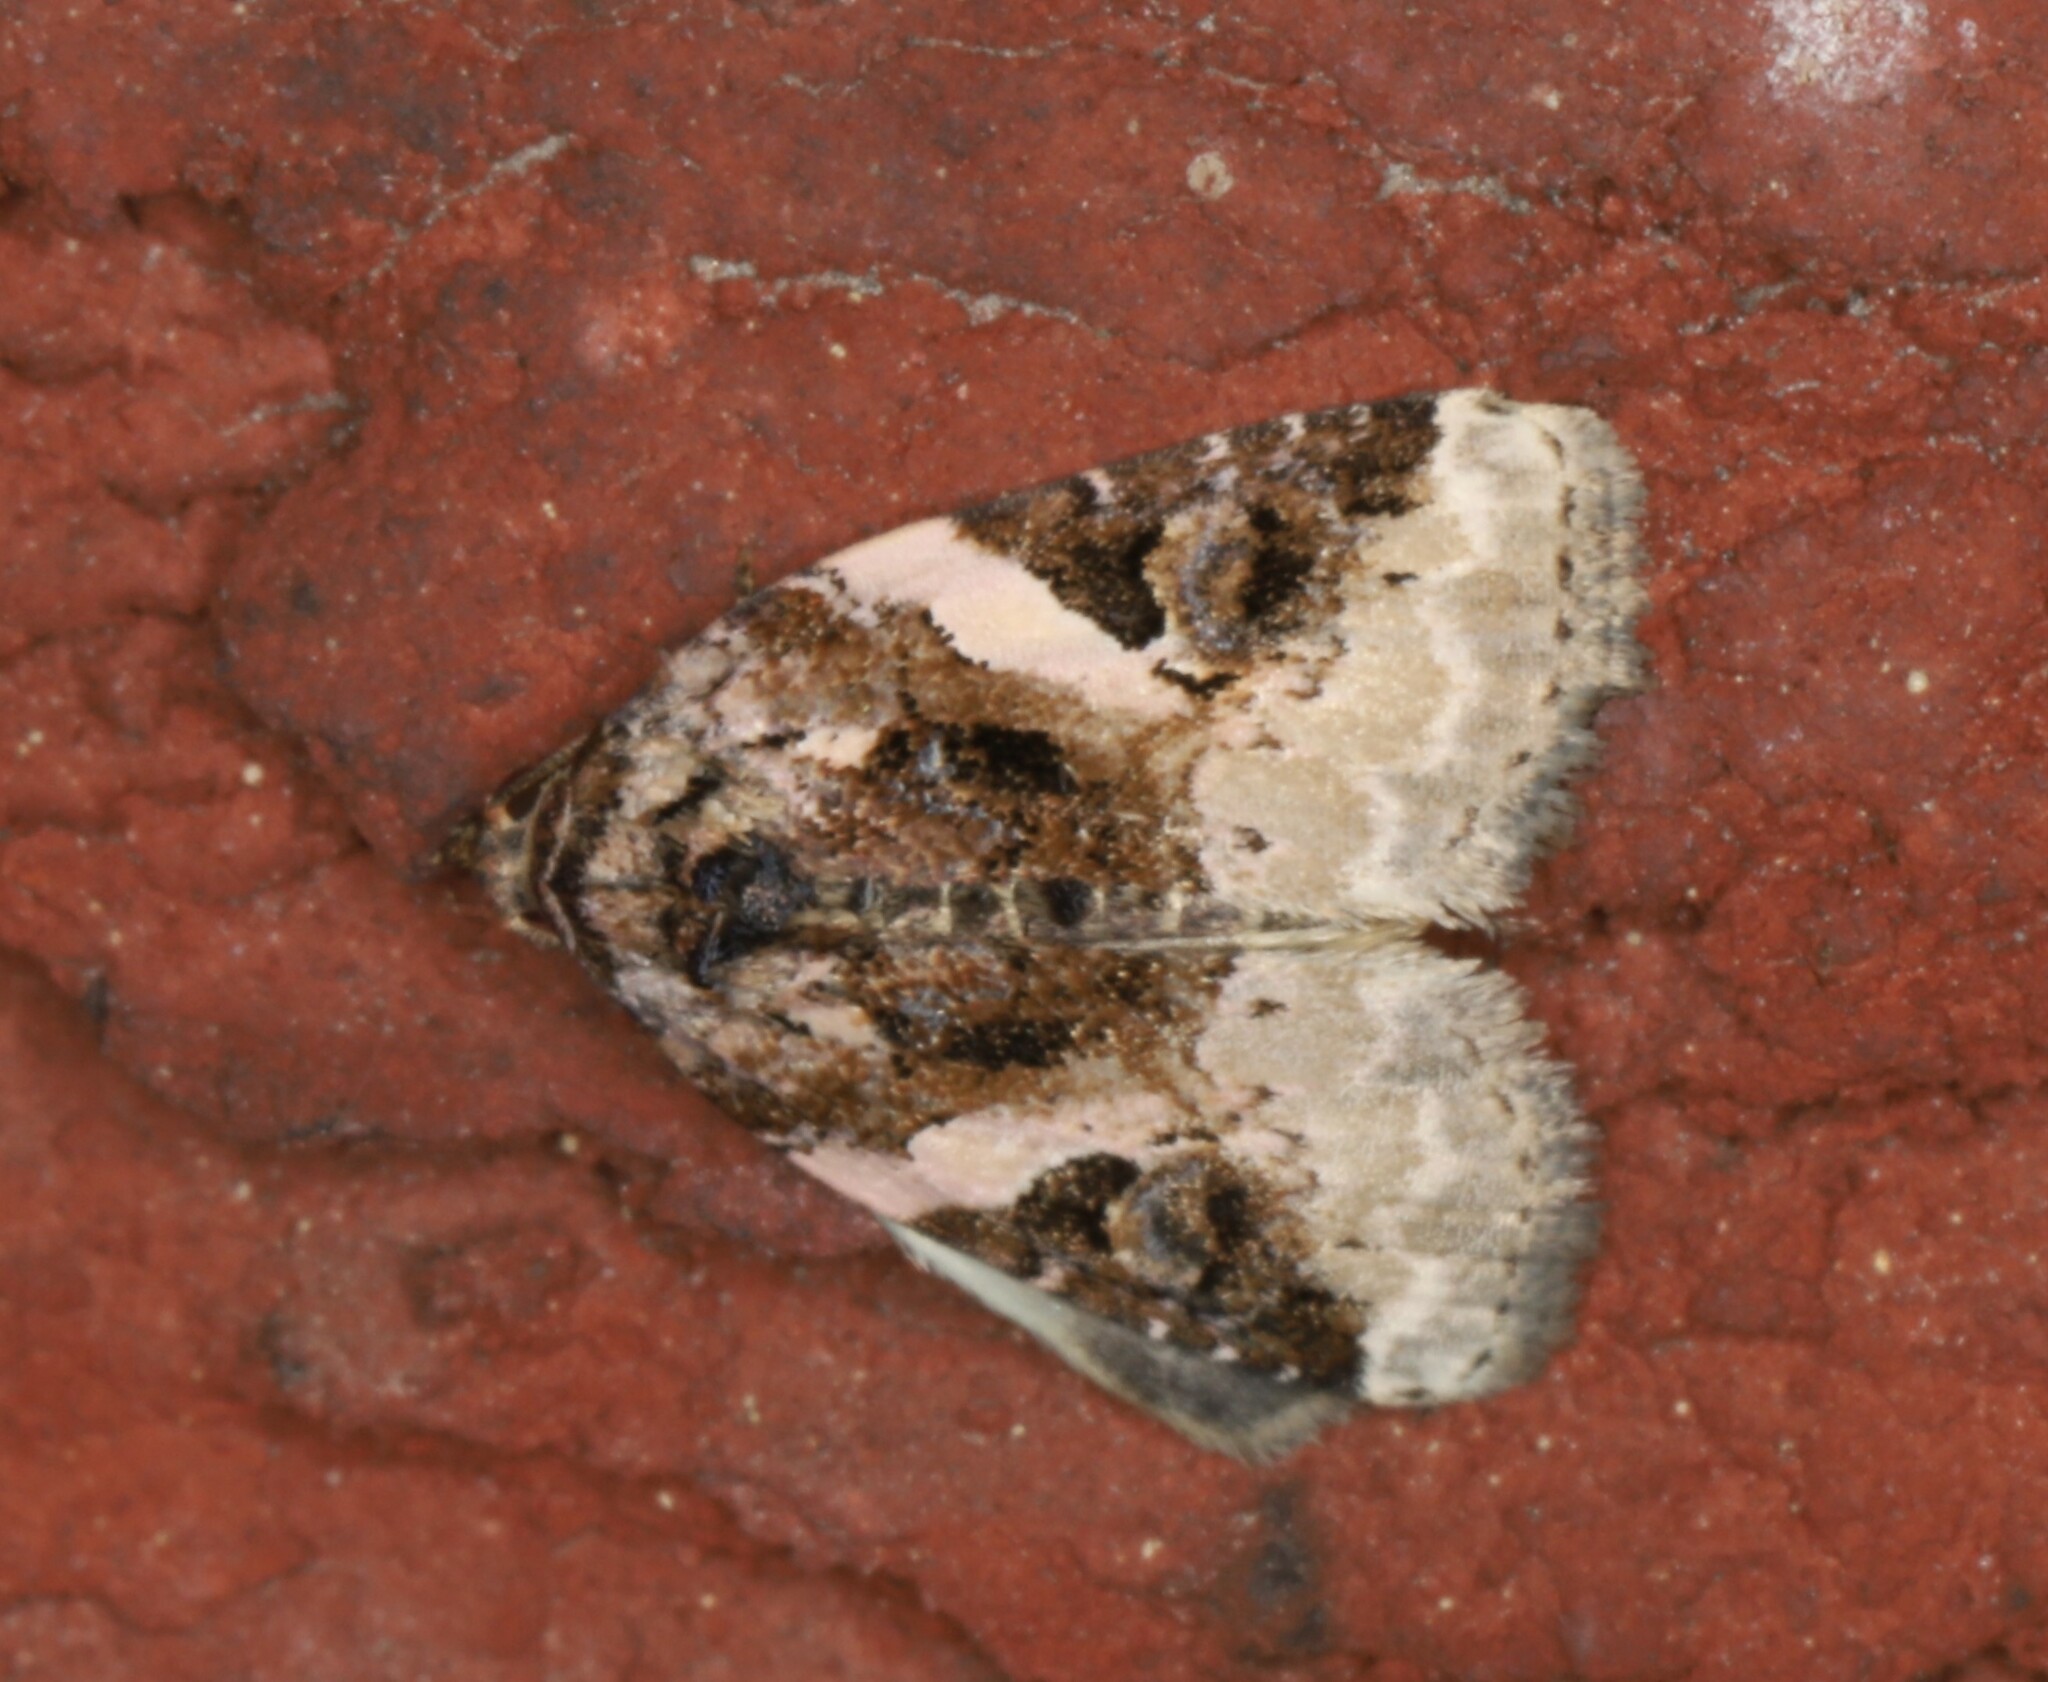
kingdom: Animalia
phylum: Arthropoda
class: Insecta
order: Lepidoptera
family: Noctuidae
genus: Pseudeustrotia
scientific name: Pseudeustrotia carneola
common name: Pink-barred lithacodia moth
